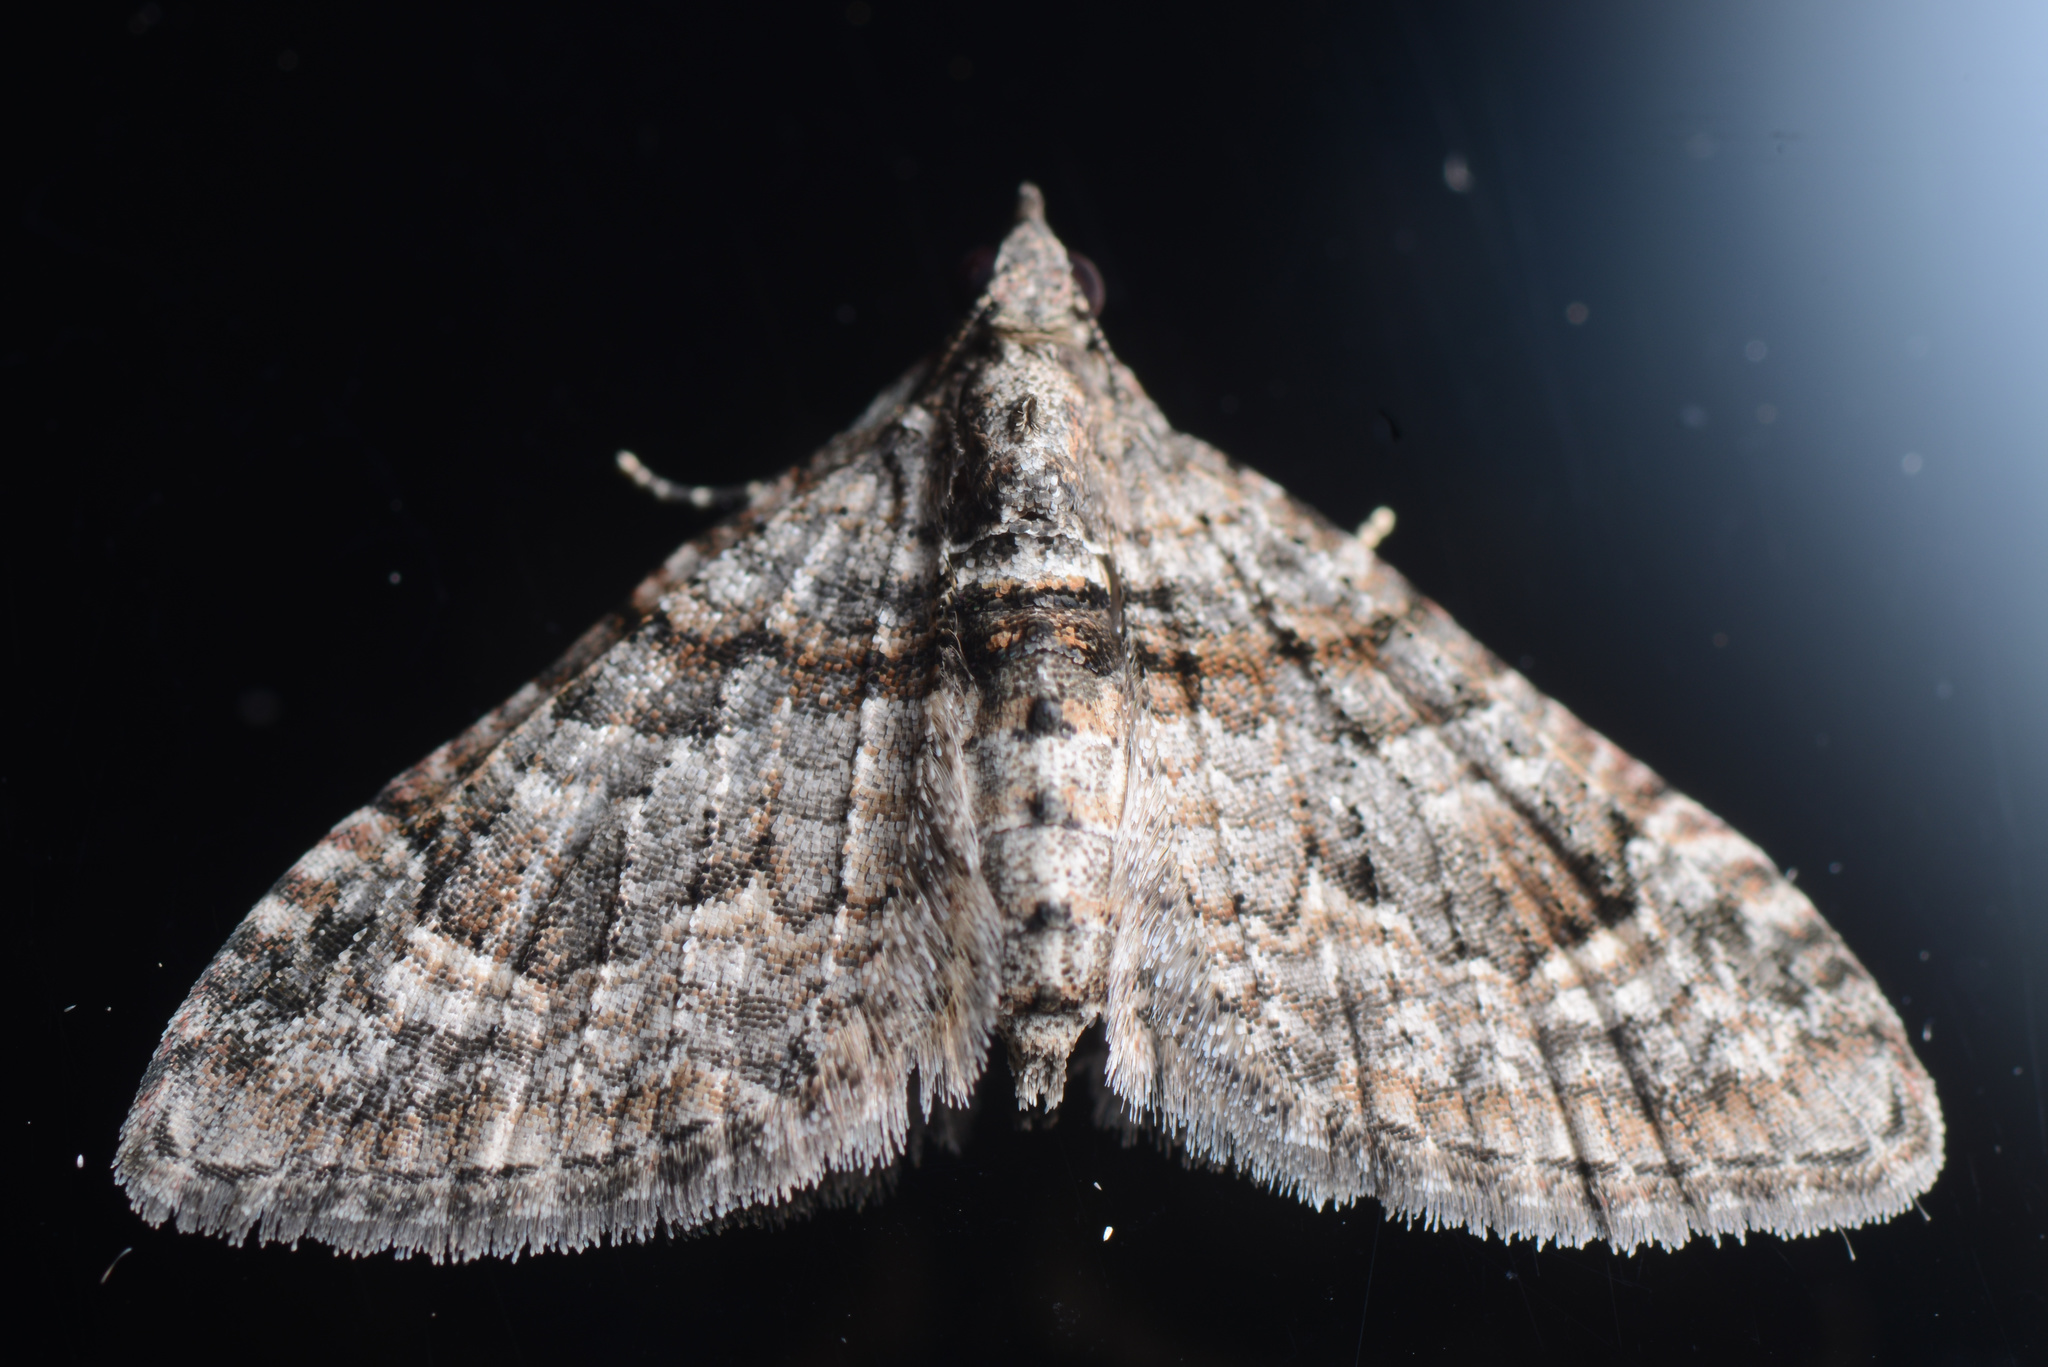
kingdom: Animalia
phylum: Arthropoda
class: Insecta
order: Lepidoptera
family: Geometridae
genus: Phrissogonus
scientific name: Phrissogonus laticostata
